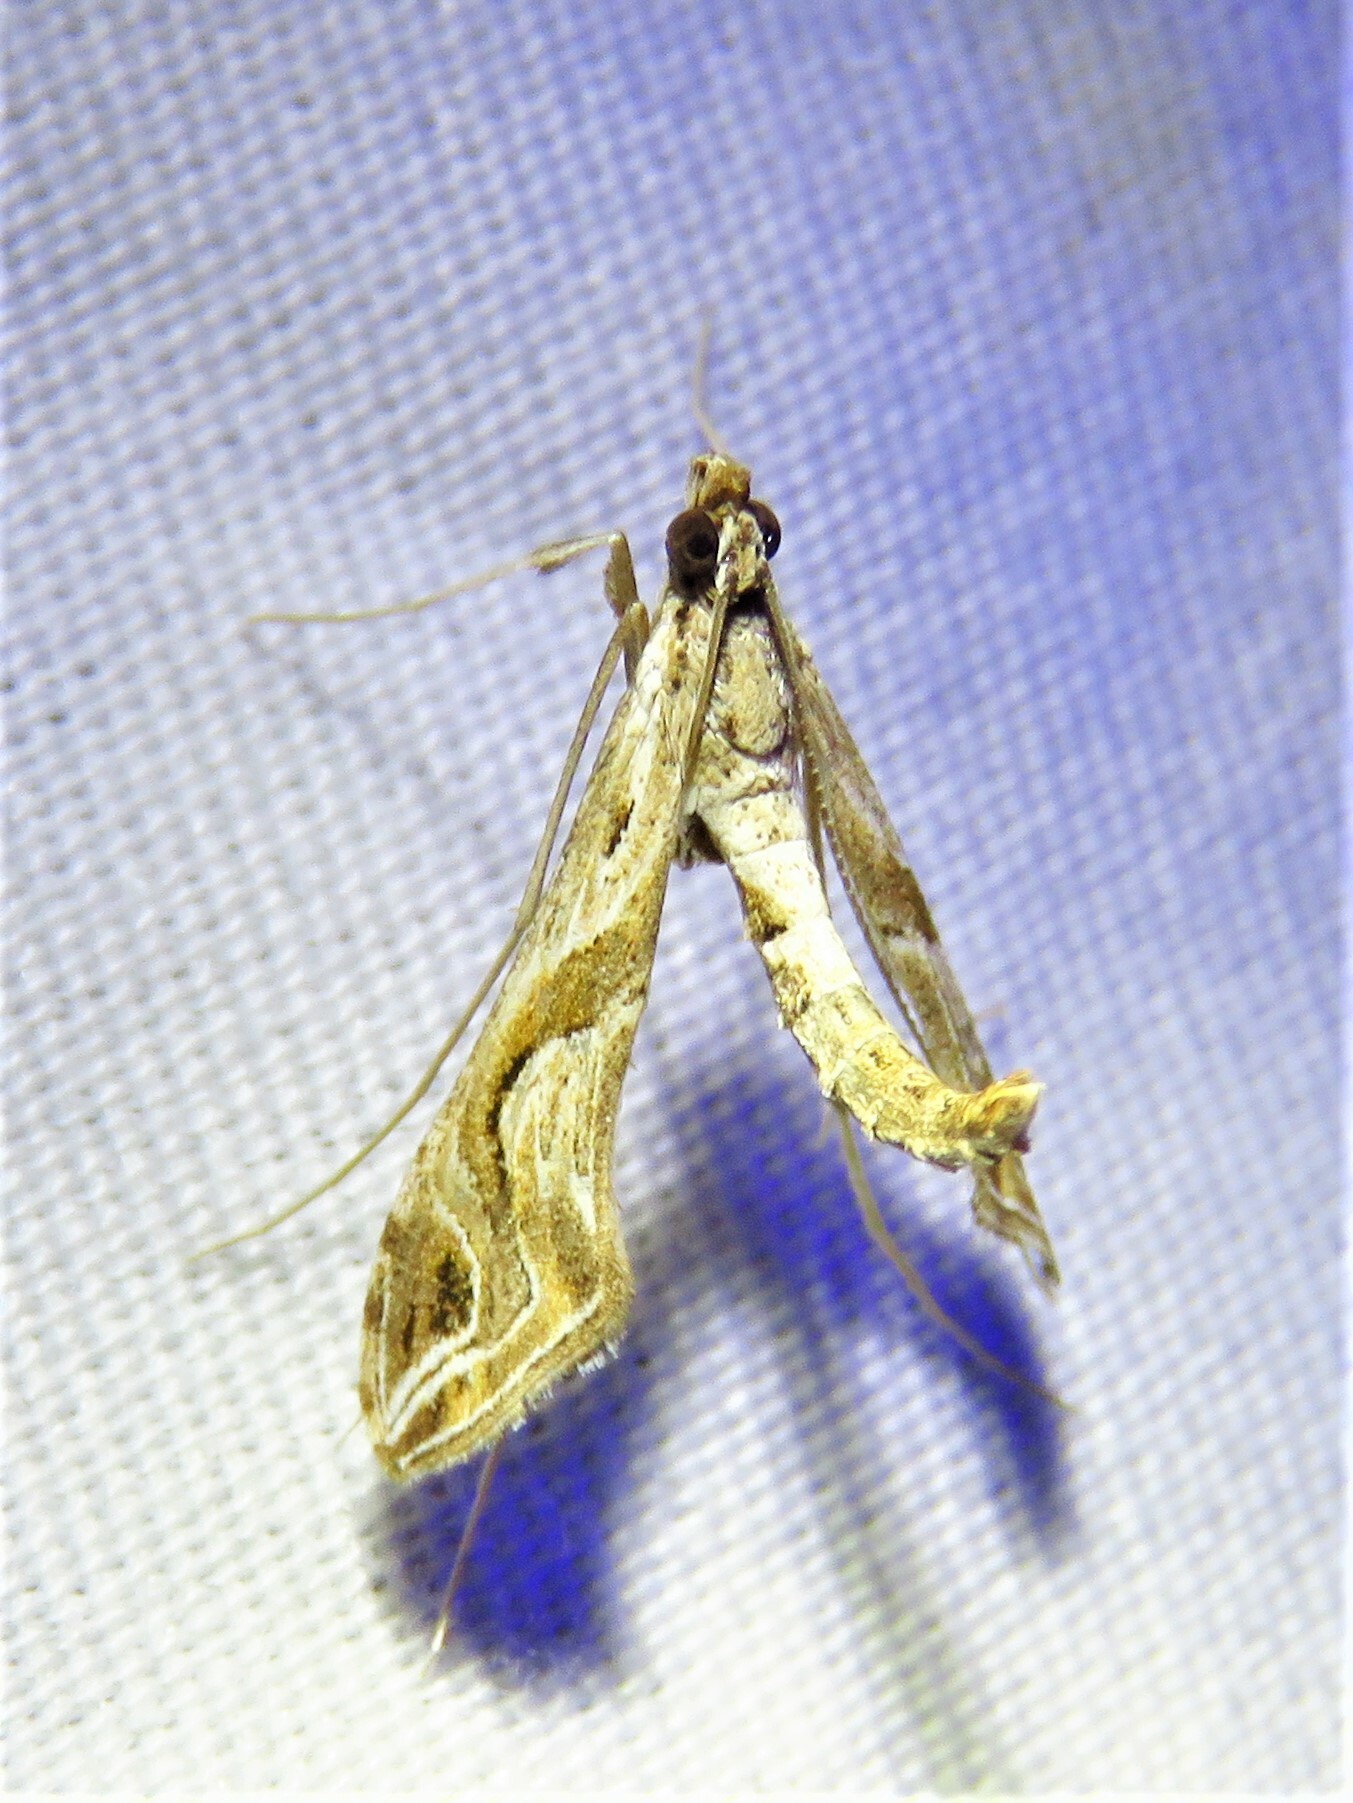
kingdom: Animalia
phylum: Arthropoda
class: Insecta
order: Lepidoptera
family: Crambidae
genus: Lineodes
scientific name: Lineodes integra
